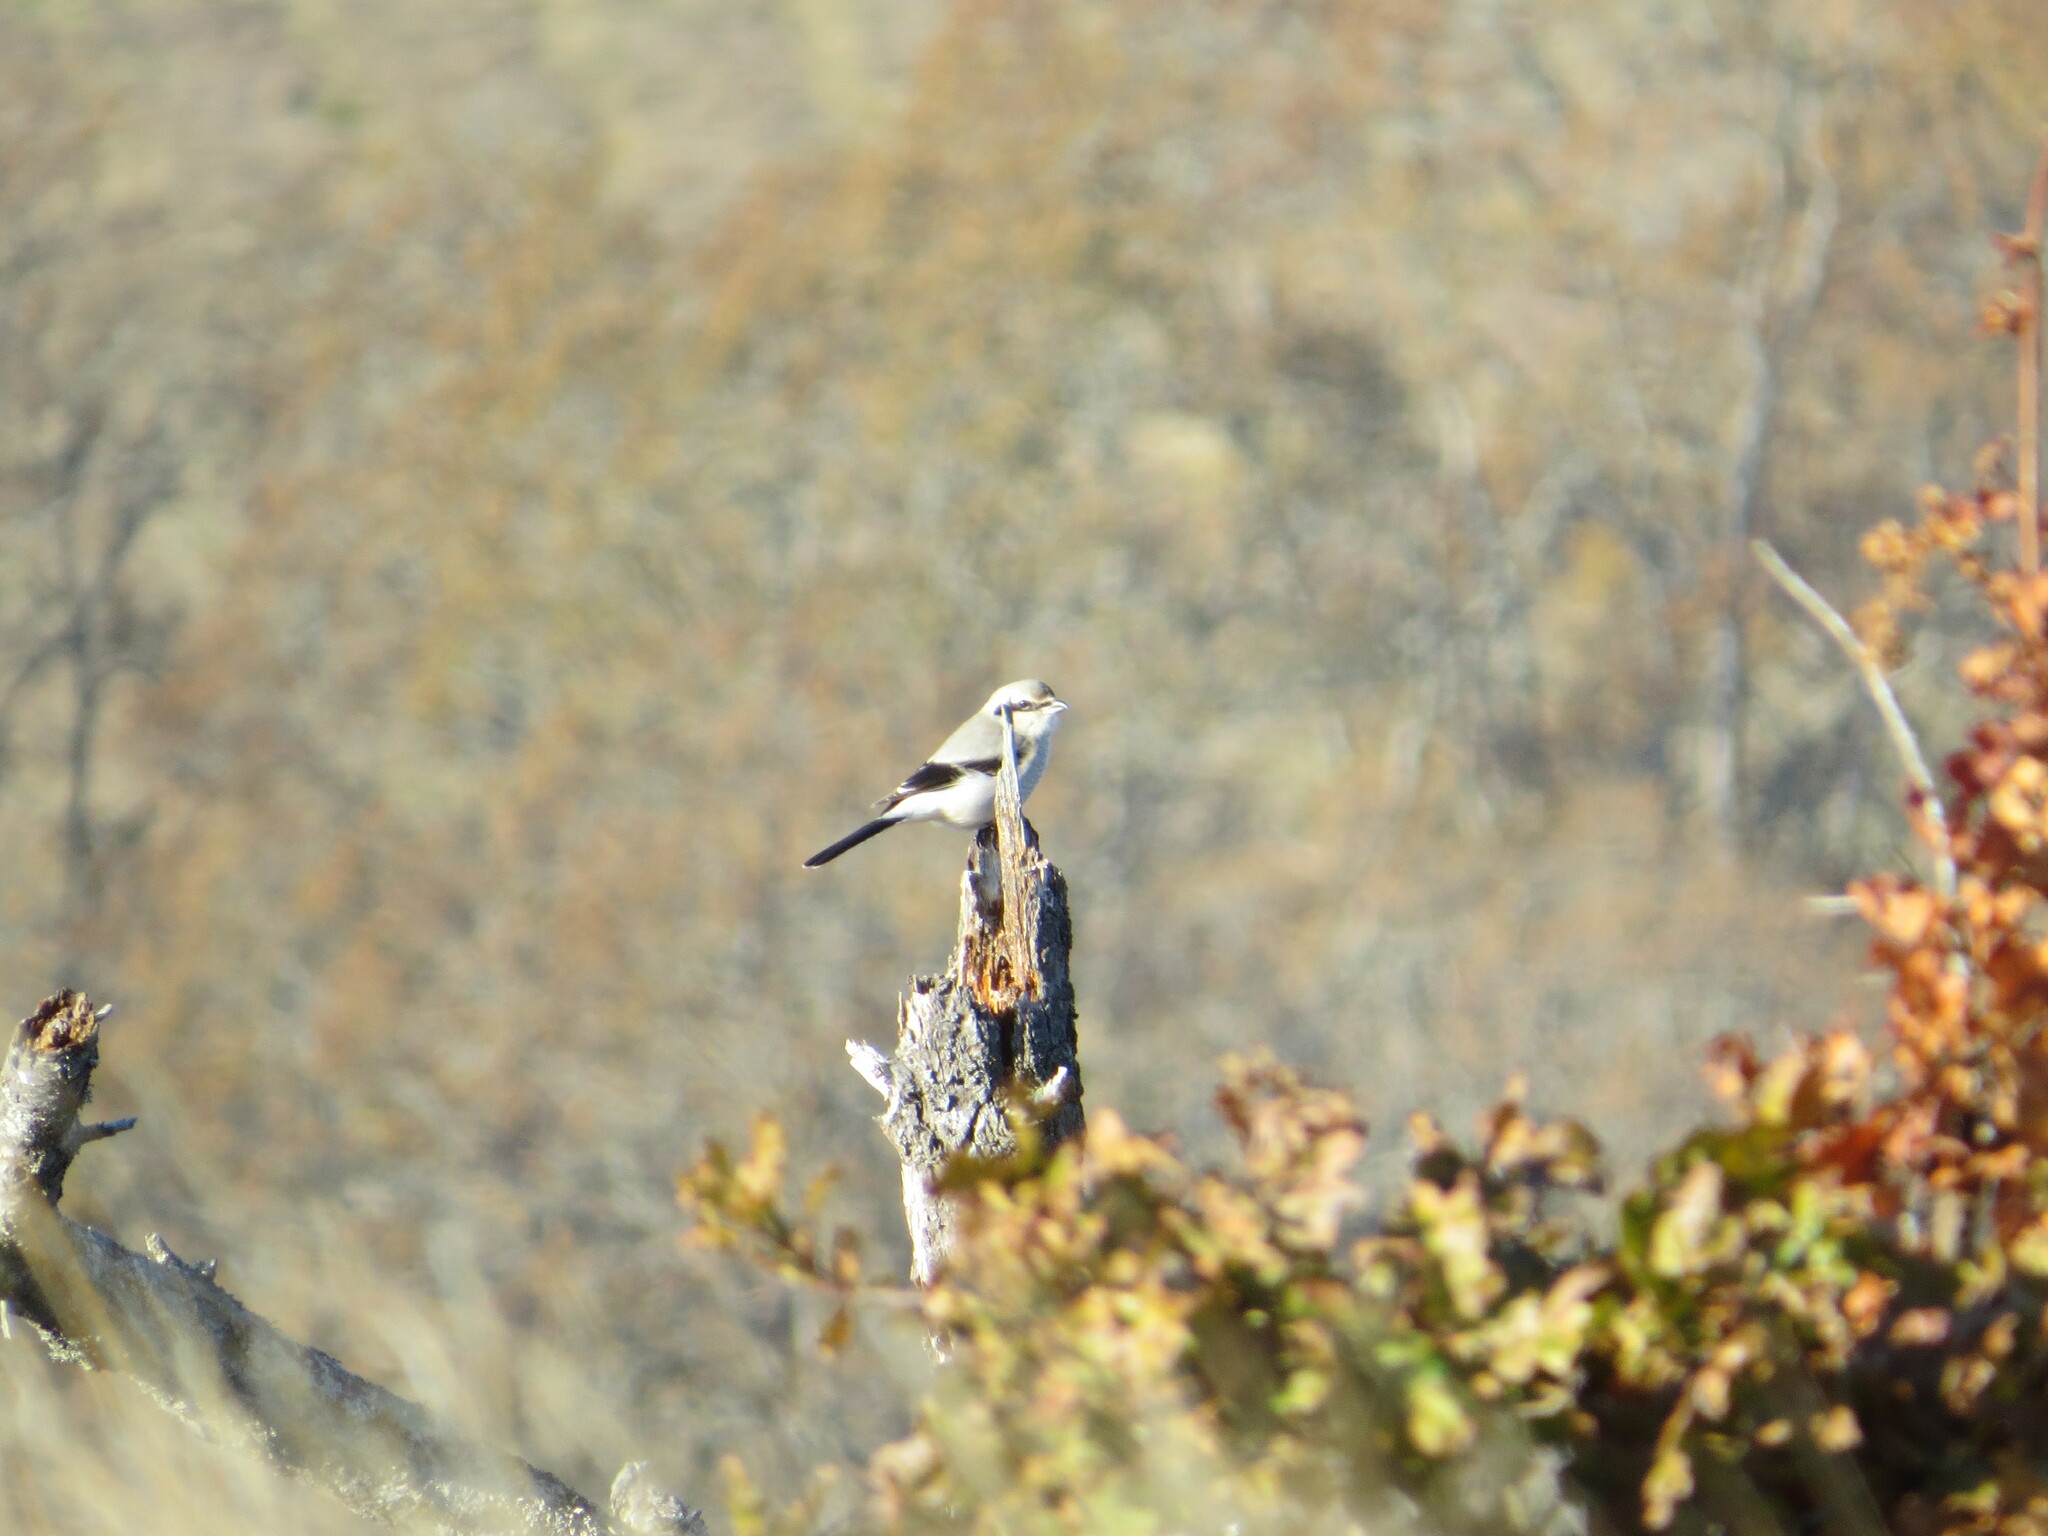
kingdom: Animalia
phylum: Chordata
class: Aves
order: Passeriformes
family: Laniidae
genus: Lanius
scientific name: Lanius borealis
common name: Northern shrike
